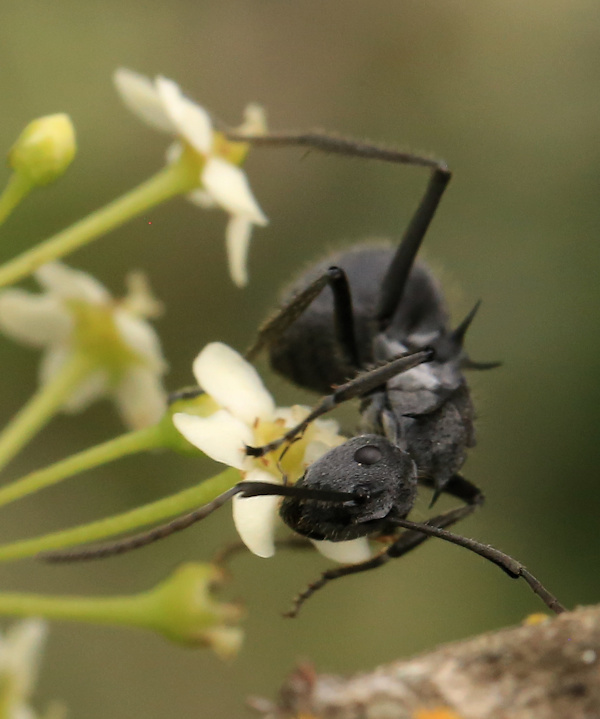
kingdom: Animalia
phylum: Arthropoda
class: Insecta
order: Hymenoptera
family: Formicidae
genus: Polyrhachis
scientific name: Polyrhachis schistacea
